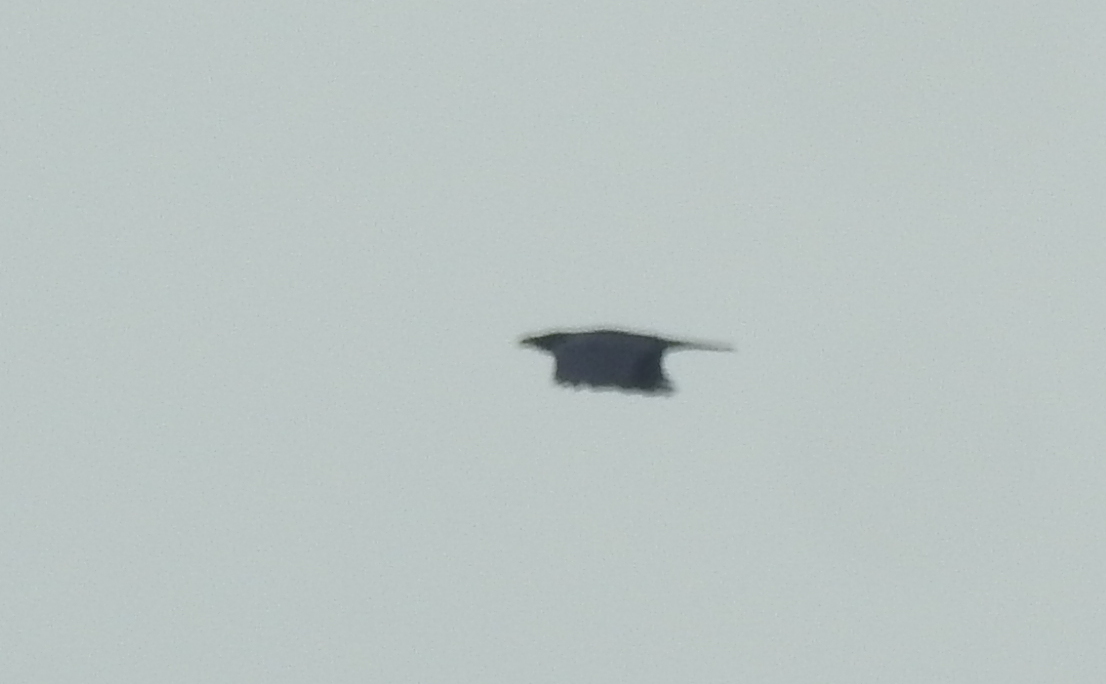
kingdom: Animalia
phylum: Chordata
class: Aves
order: Passeriformes
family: Corvidae
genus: Corvus
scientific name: Corvus macrorhynchos
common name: Large-billed crow
